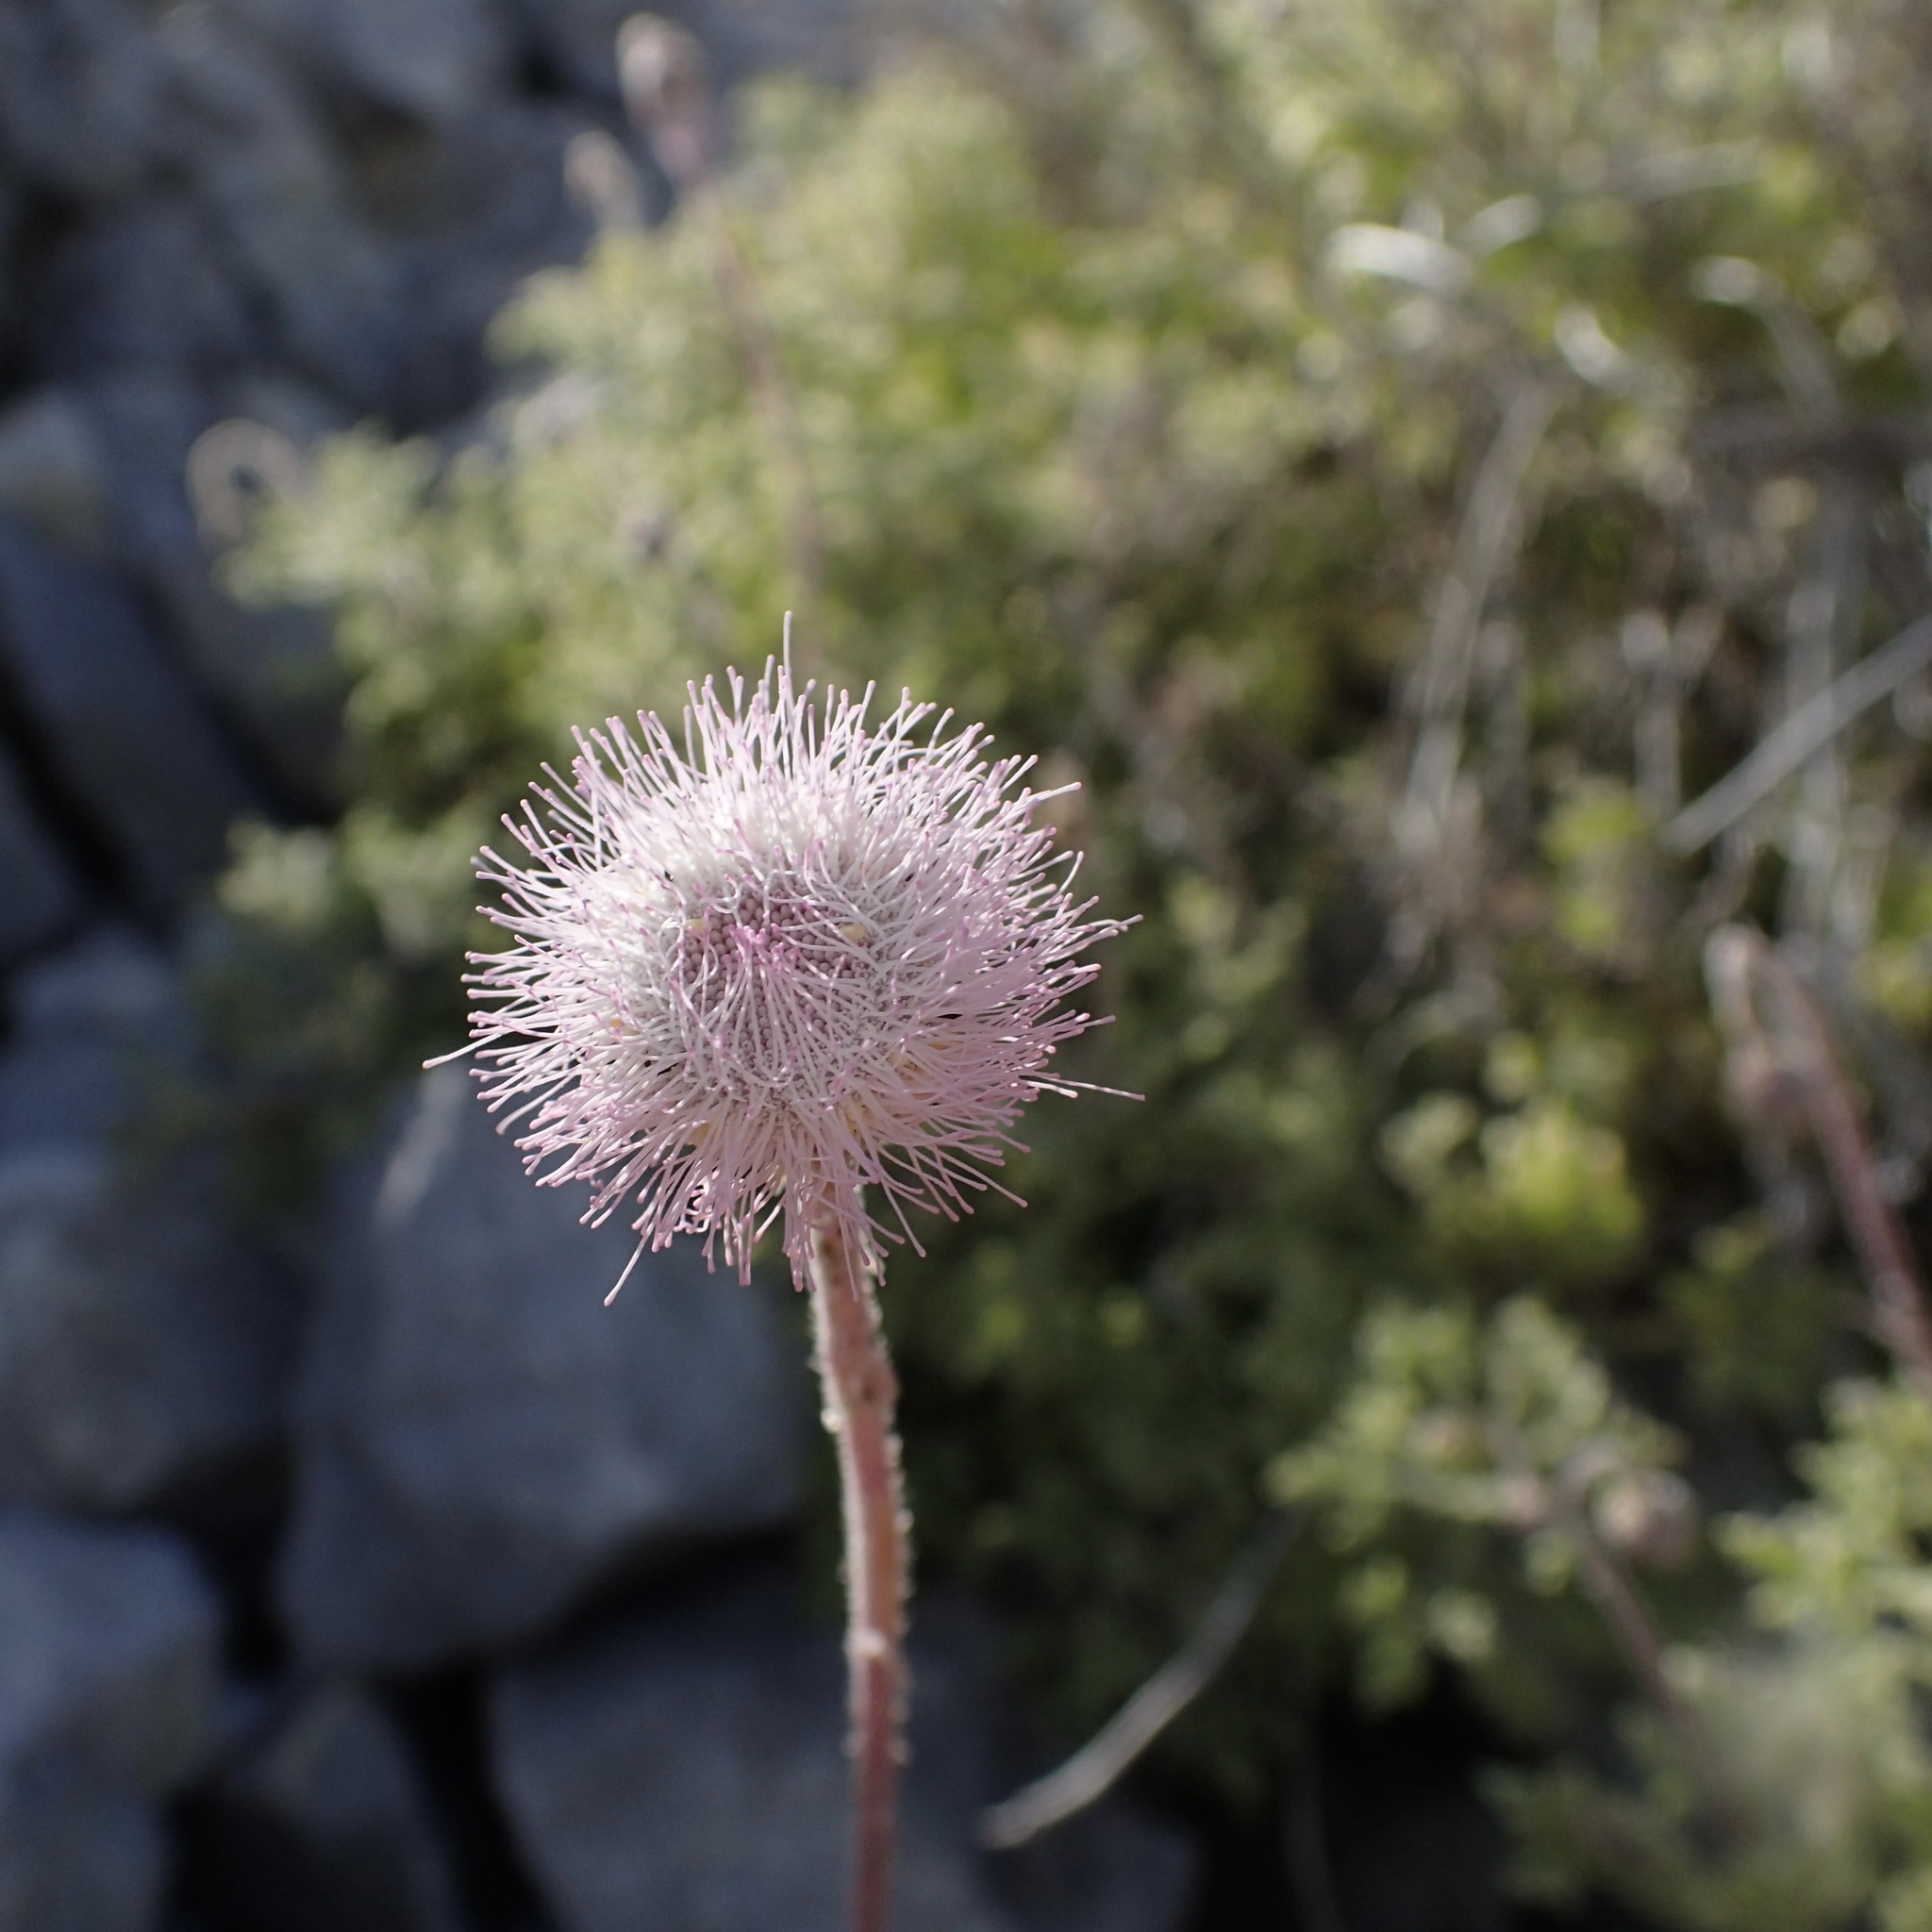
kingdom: Plantae
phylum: Tracheophyta
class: Magnoliopsida
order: Asterales
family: Asteraceae
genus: Hofmeisteria
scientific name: Hofmeisteria fasciculata
